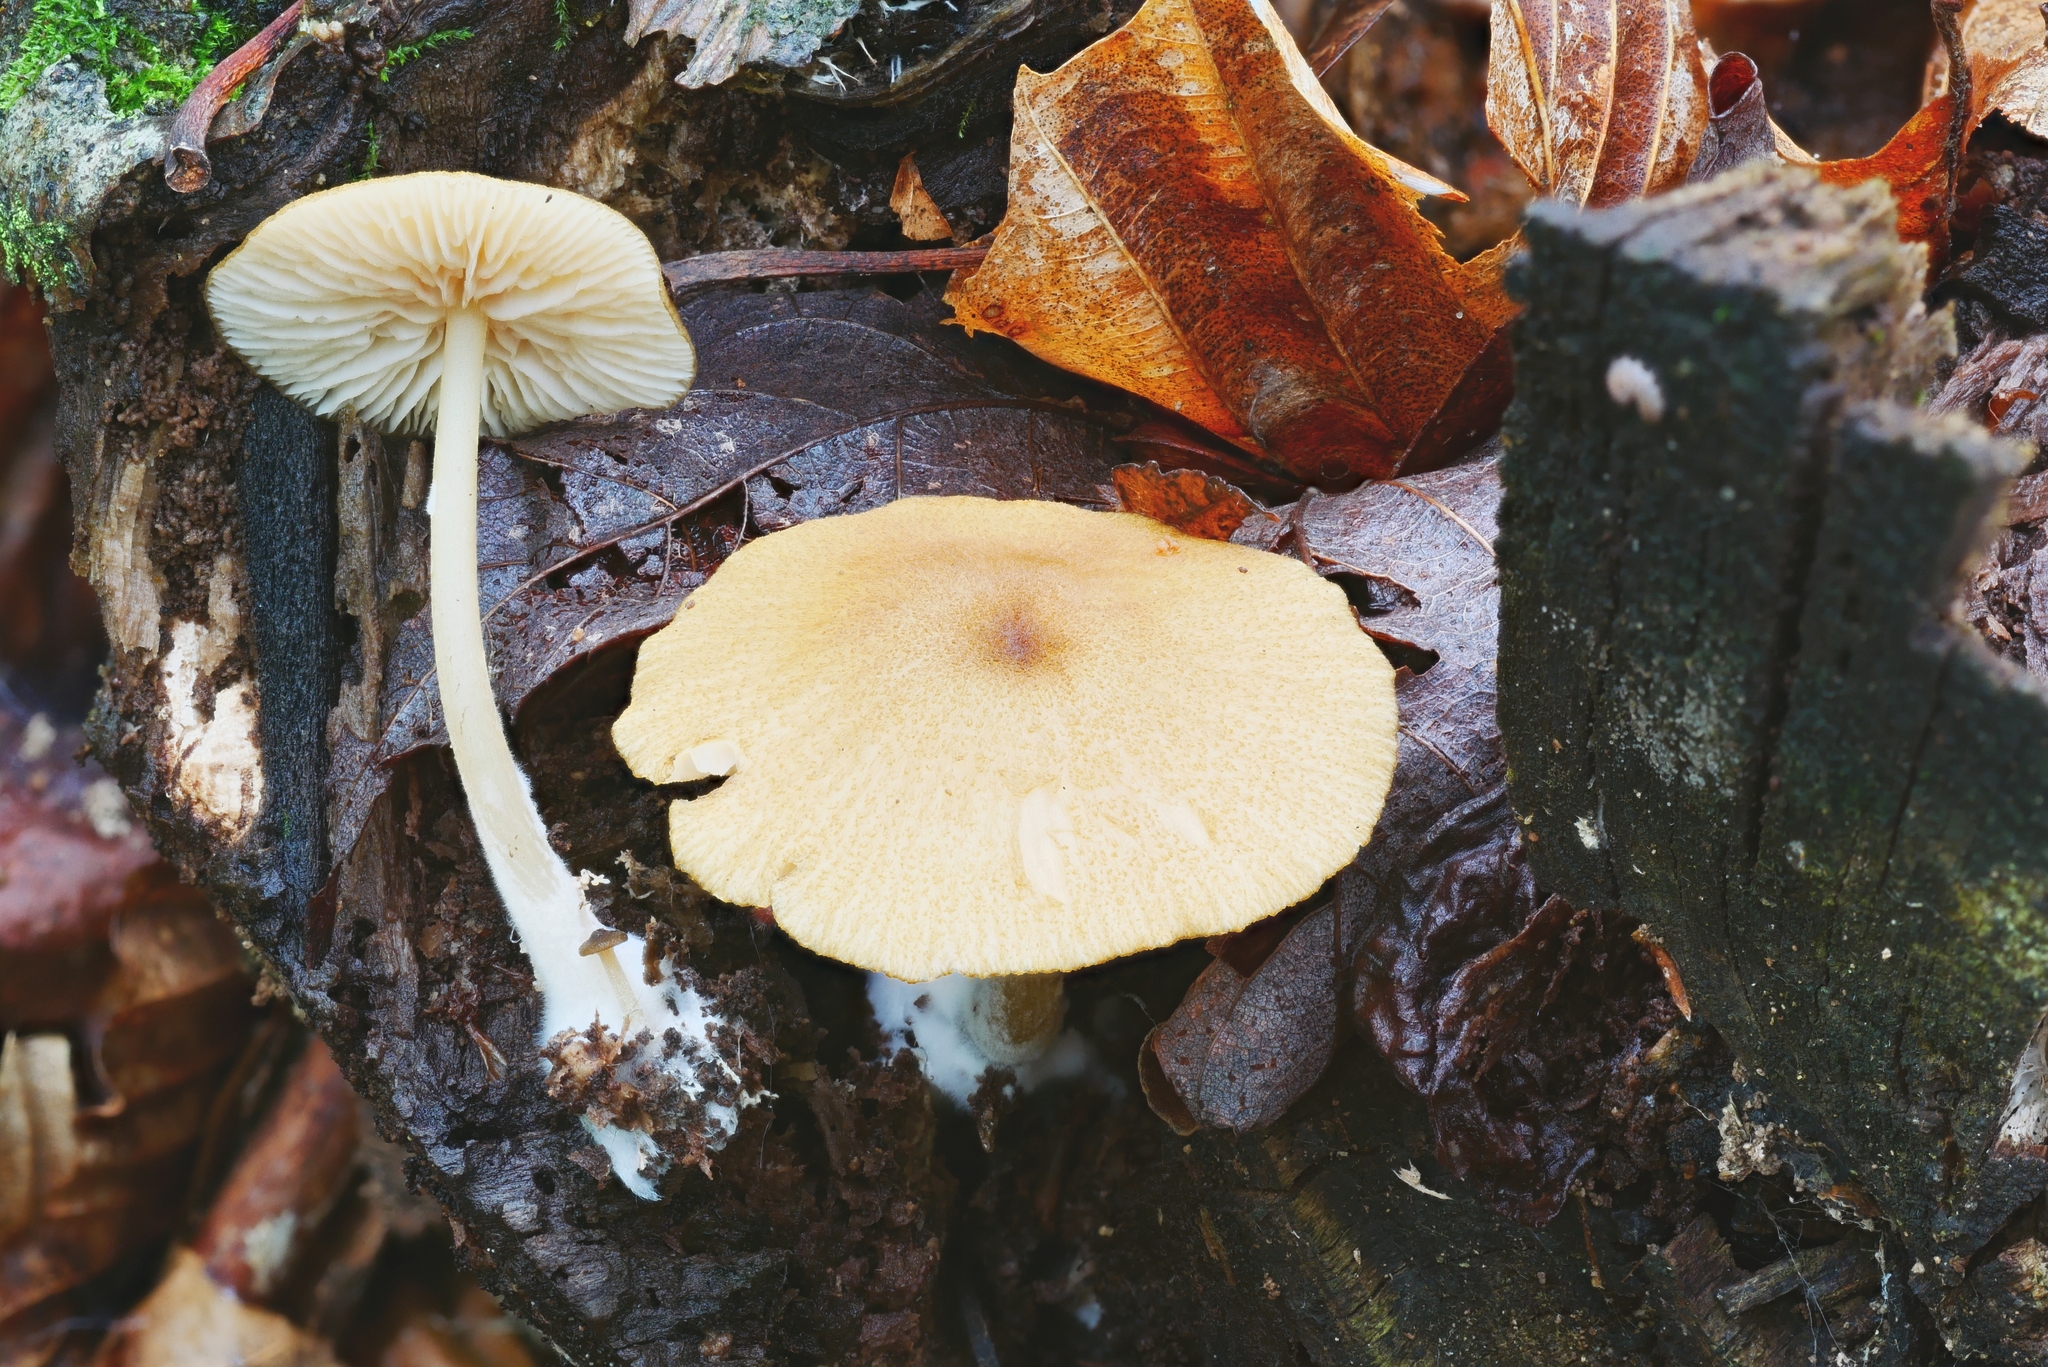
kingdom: Fungi
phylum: Basidiomycota
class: Agaricomycetes
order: Agaricales
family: Entolomataceae
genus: Entoloma
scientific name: Entoloma formosum
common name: Pretty pinkgill
